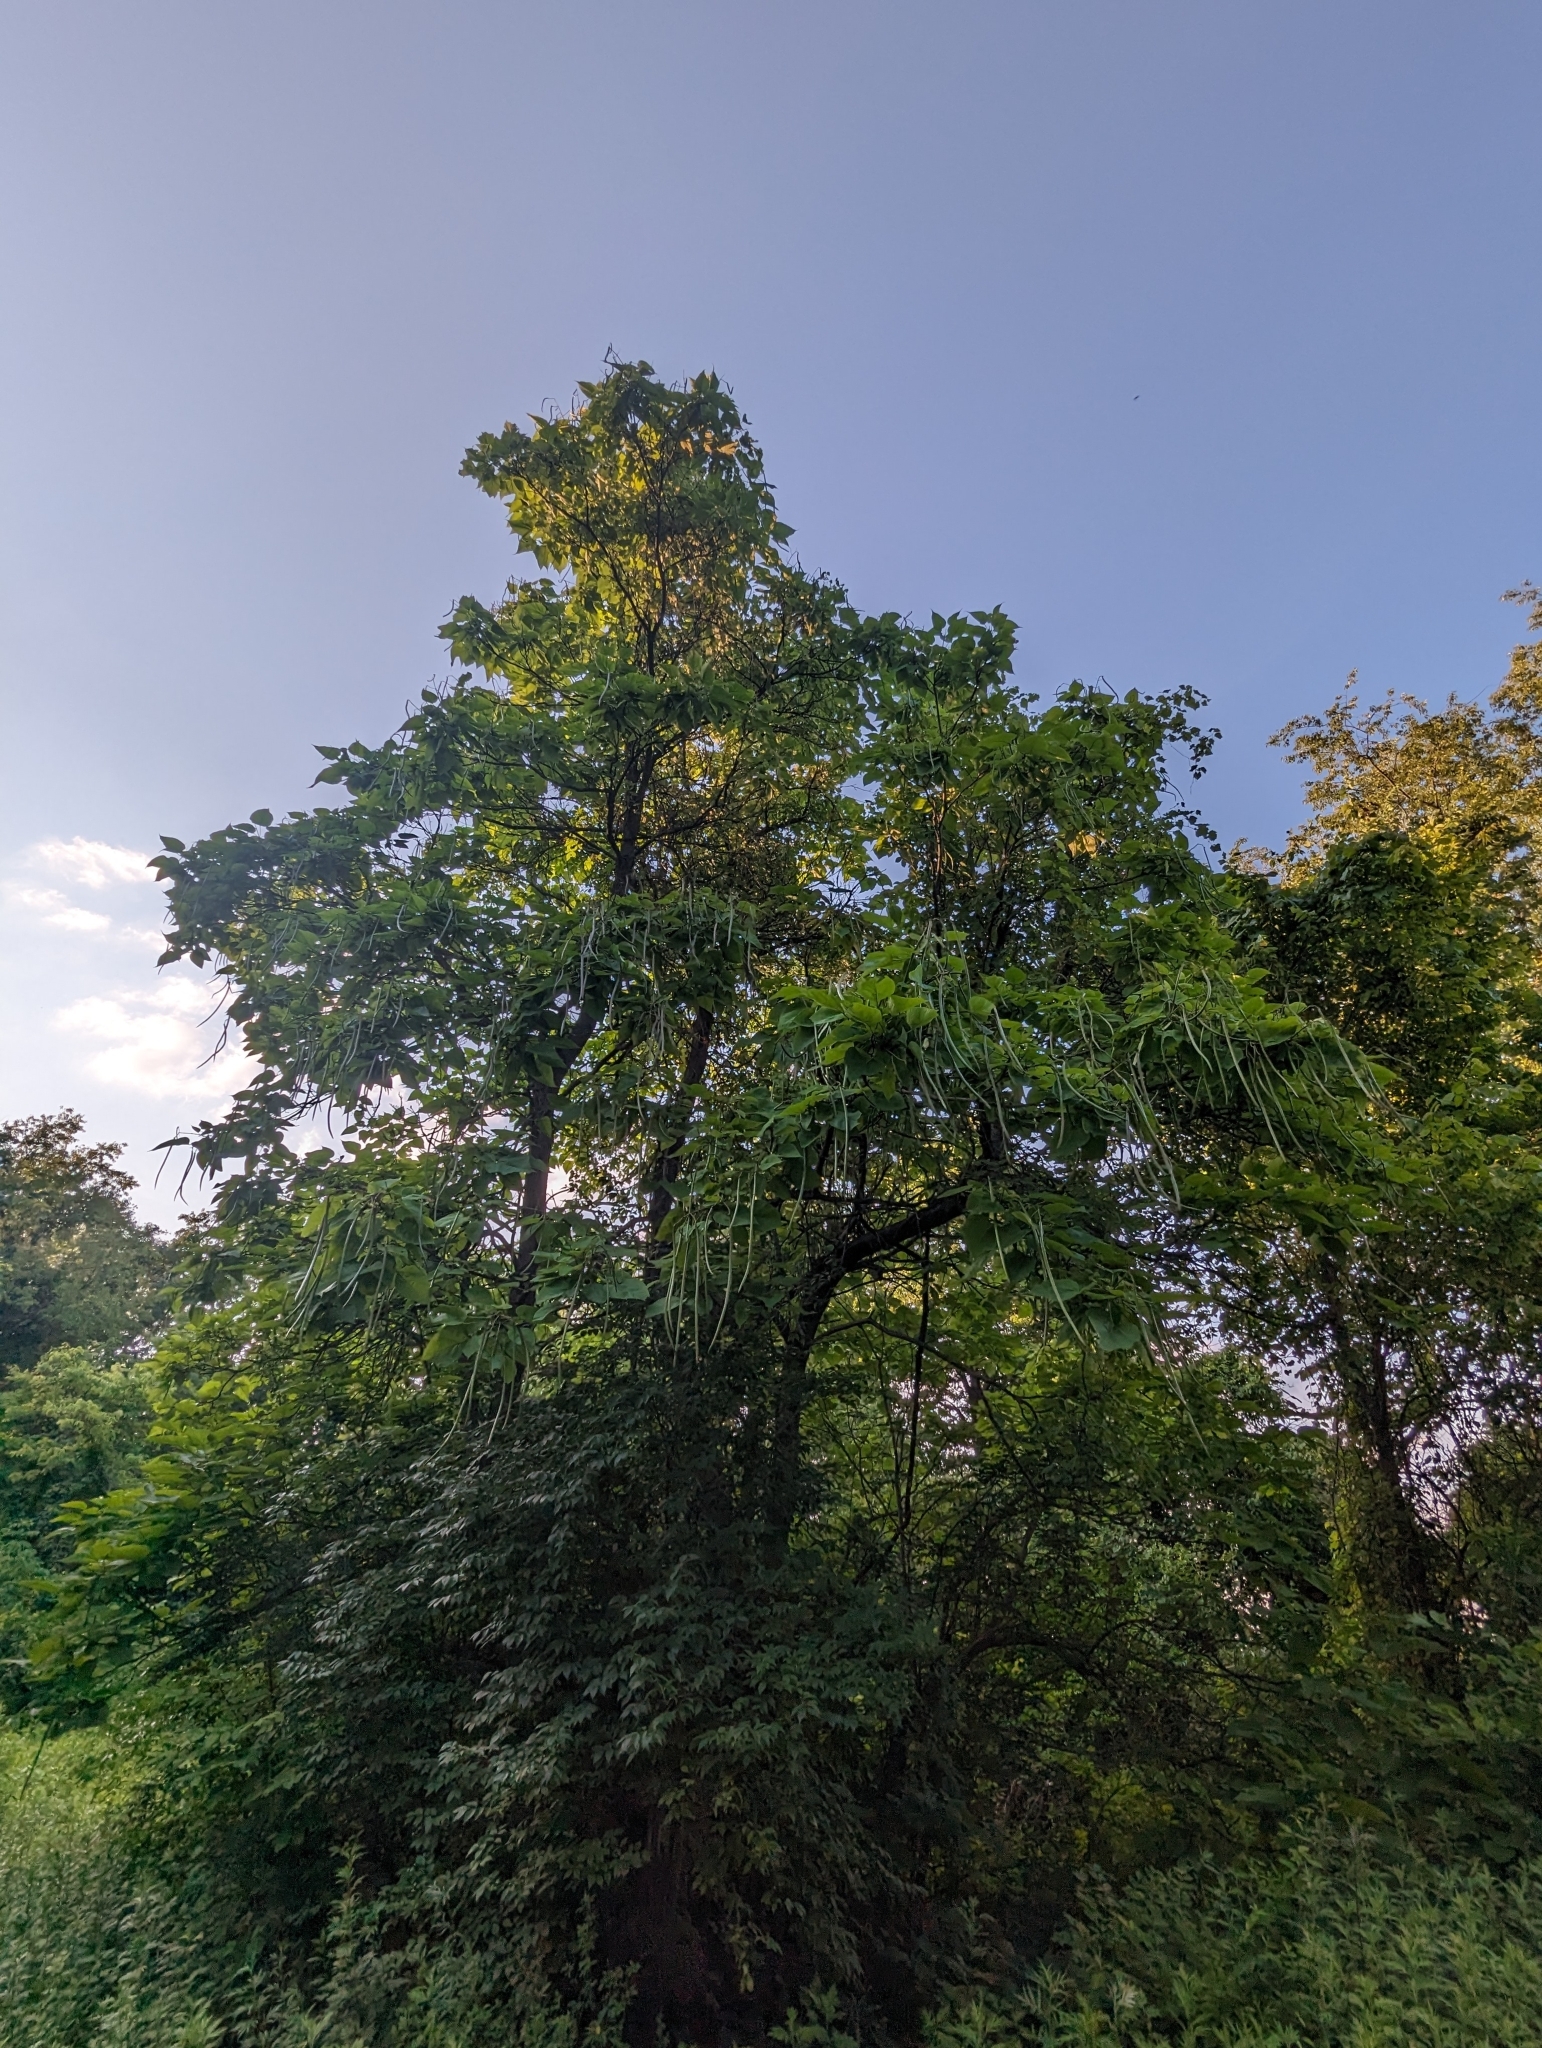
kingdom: Plantae
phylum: Tracheophyta
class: Magnoliopsida
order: Lamiales
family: Bignoniaceae
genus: Catalpa
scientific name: Catalpa speciosa
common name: Northern catalpa
